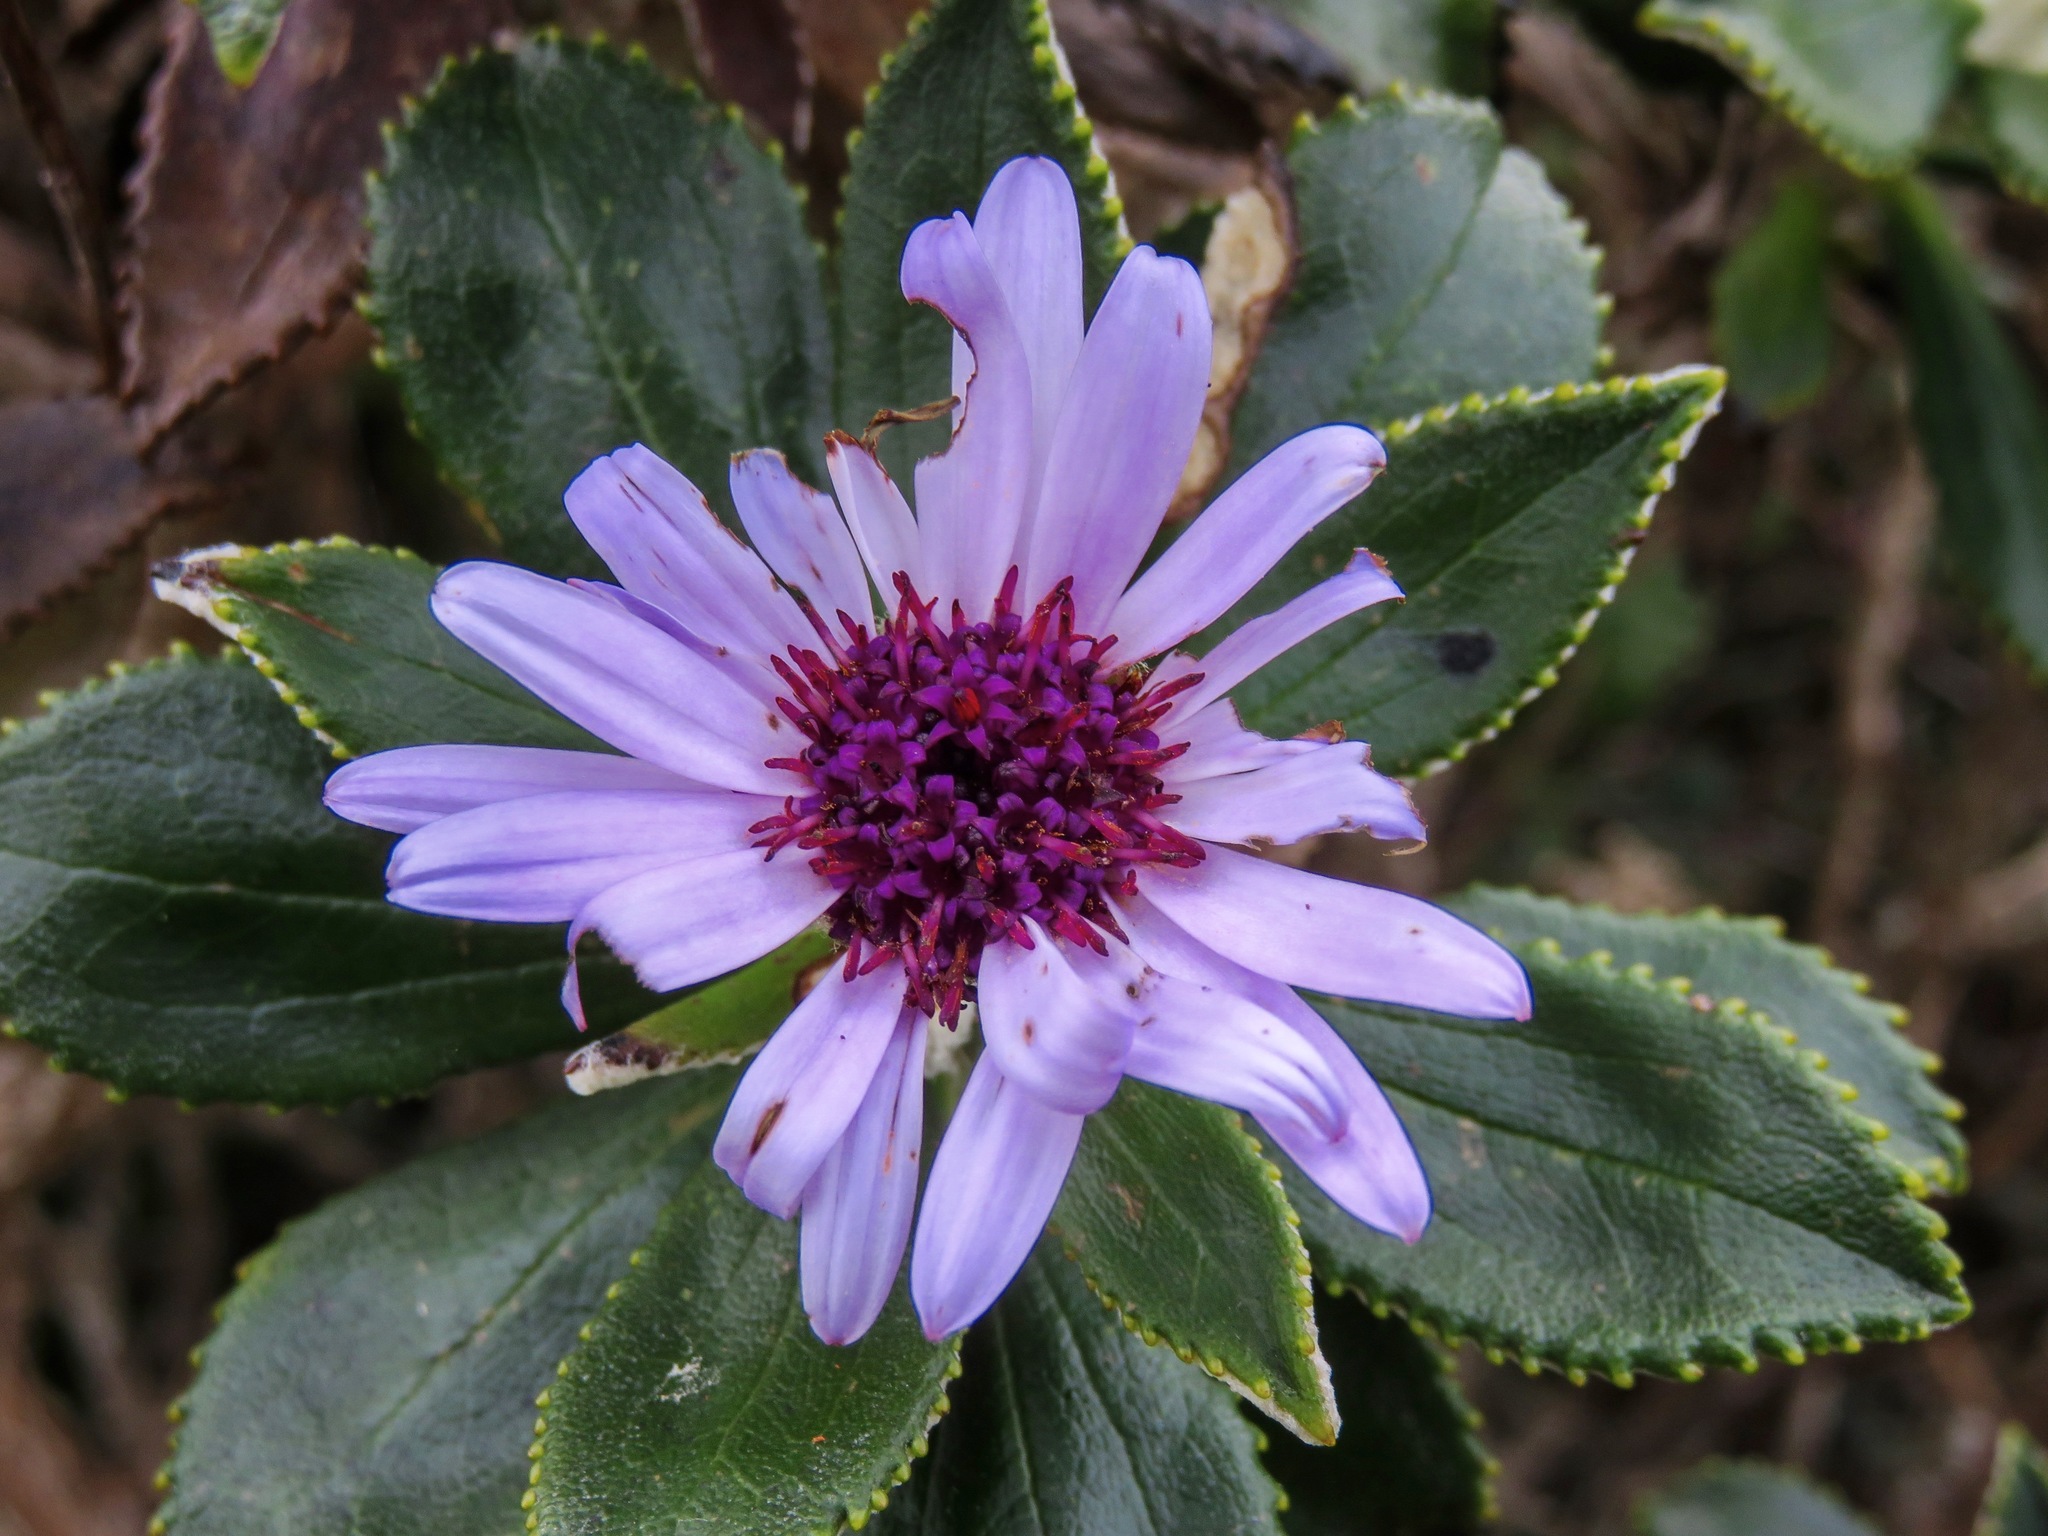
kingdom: Plantae
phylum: Tracheophyta
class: Magnoliopsida
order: Asterales
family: Asteraceae
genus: Macrolearia
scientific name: Macrolearia chathamica
